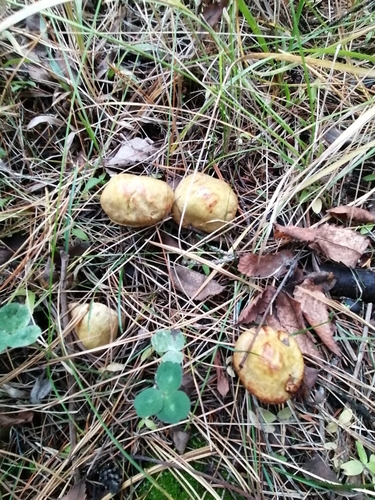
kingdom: Fungi
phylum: Basidiomycota
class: Agaricomycetes
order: Boletales
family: Suillaceae
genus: Suillus
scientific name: Suillus americanus
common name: Chicken fat mushroom
